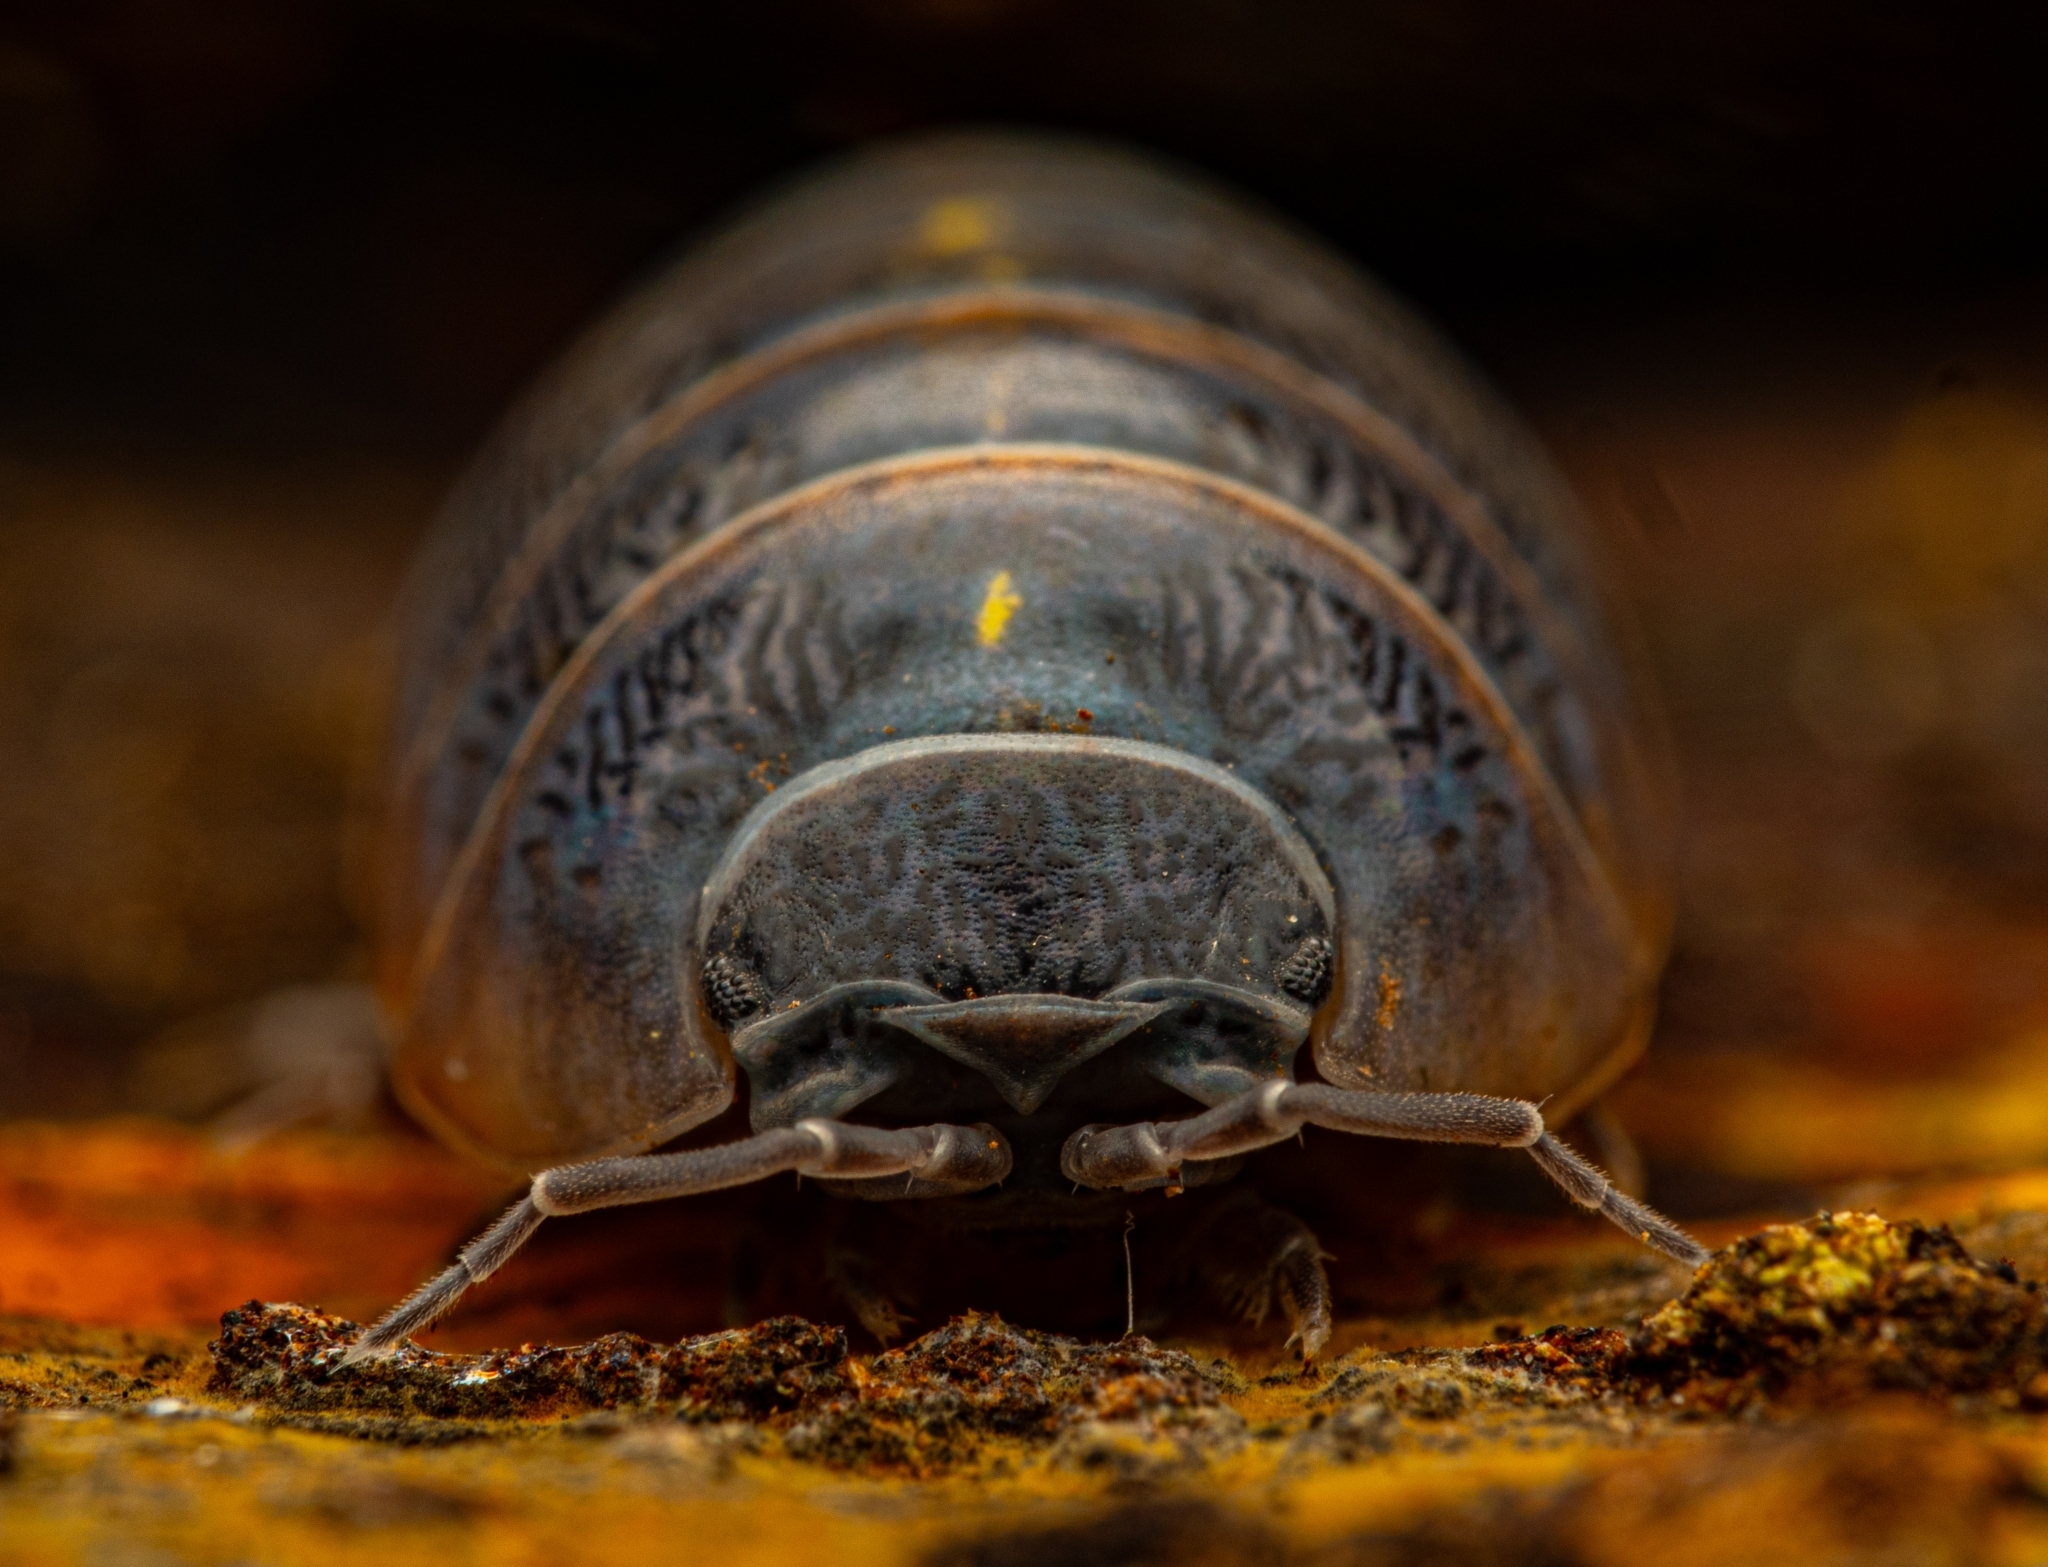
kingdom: Animalia
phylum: Arthropoda
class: Malacostraca
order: Isopoda
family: Armadillidiidae
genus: Armadillidium
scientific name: Armadillidium vulgare
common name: Common pill woodlouse
